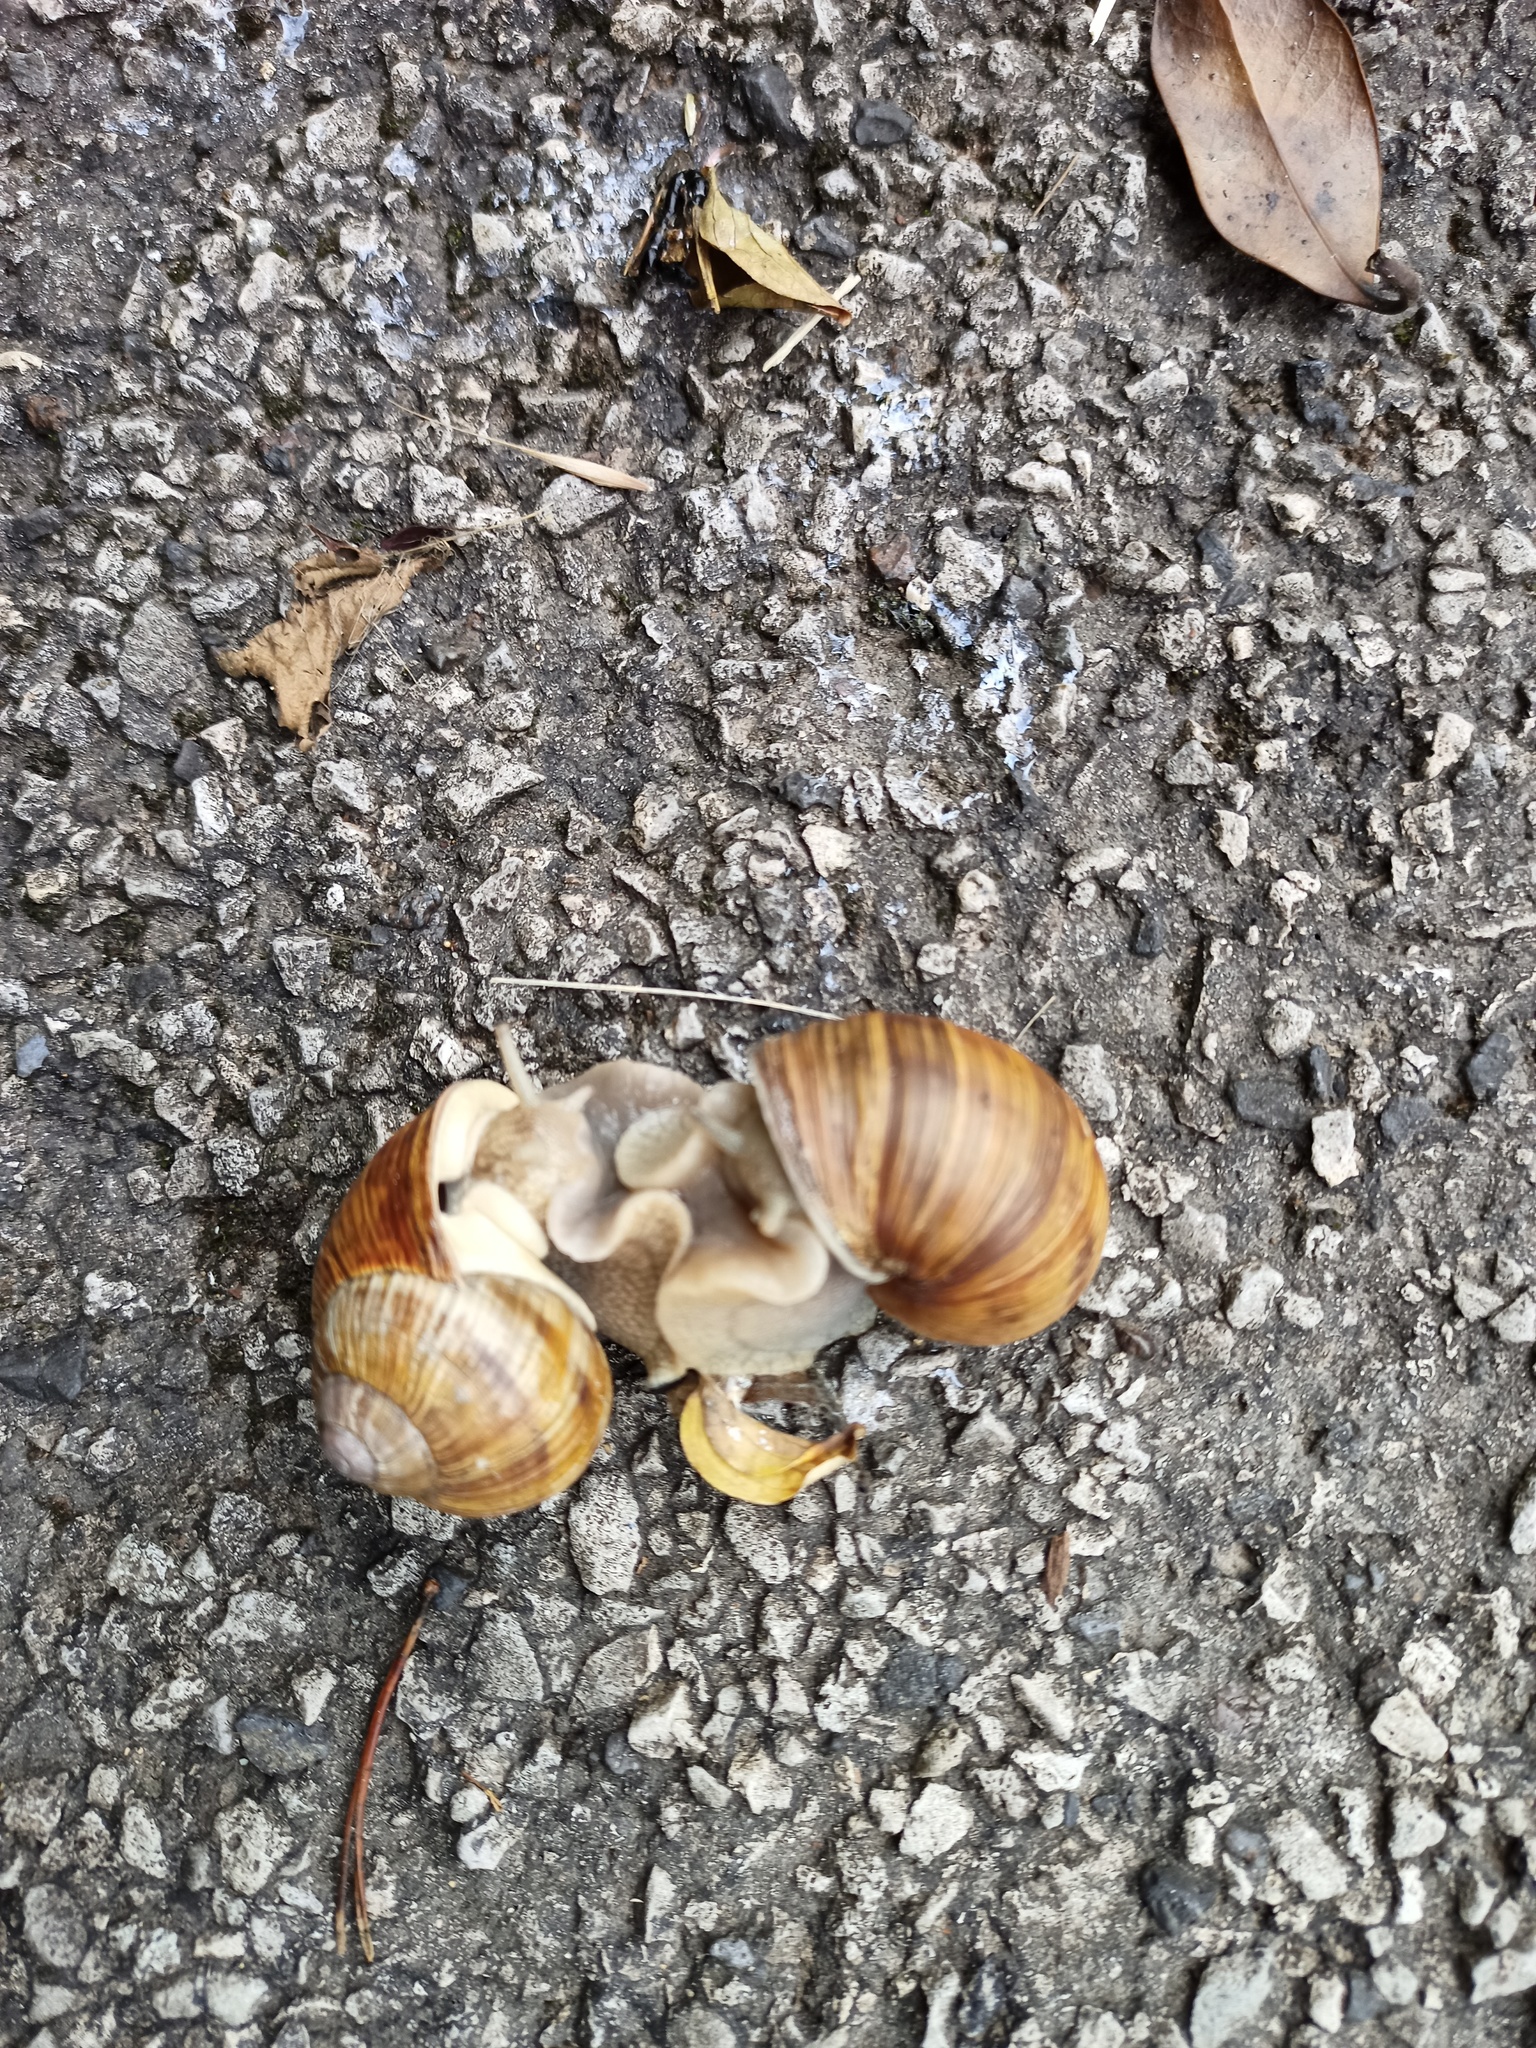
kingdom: Animalia
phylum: Mollusca
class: Gastropoda
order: Stylommatophora
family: Helicidae
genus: Helix
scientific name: Helix pomatia
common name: Roman snail
